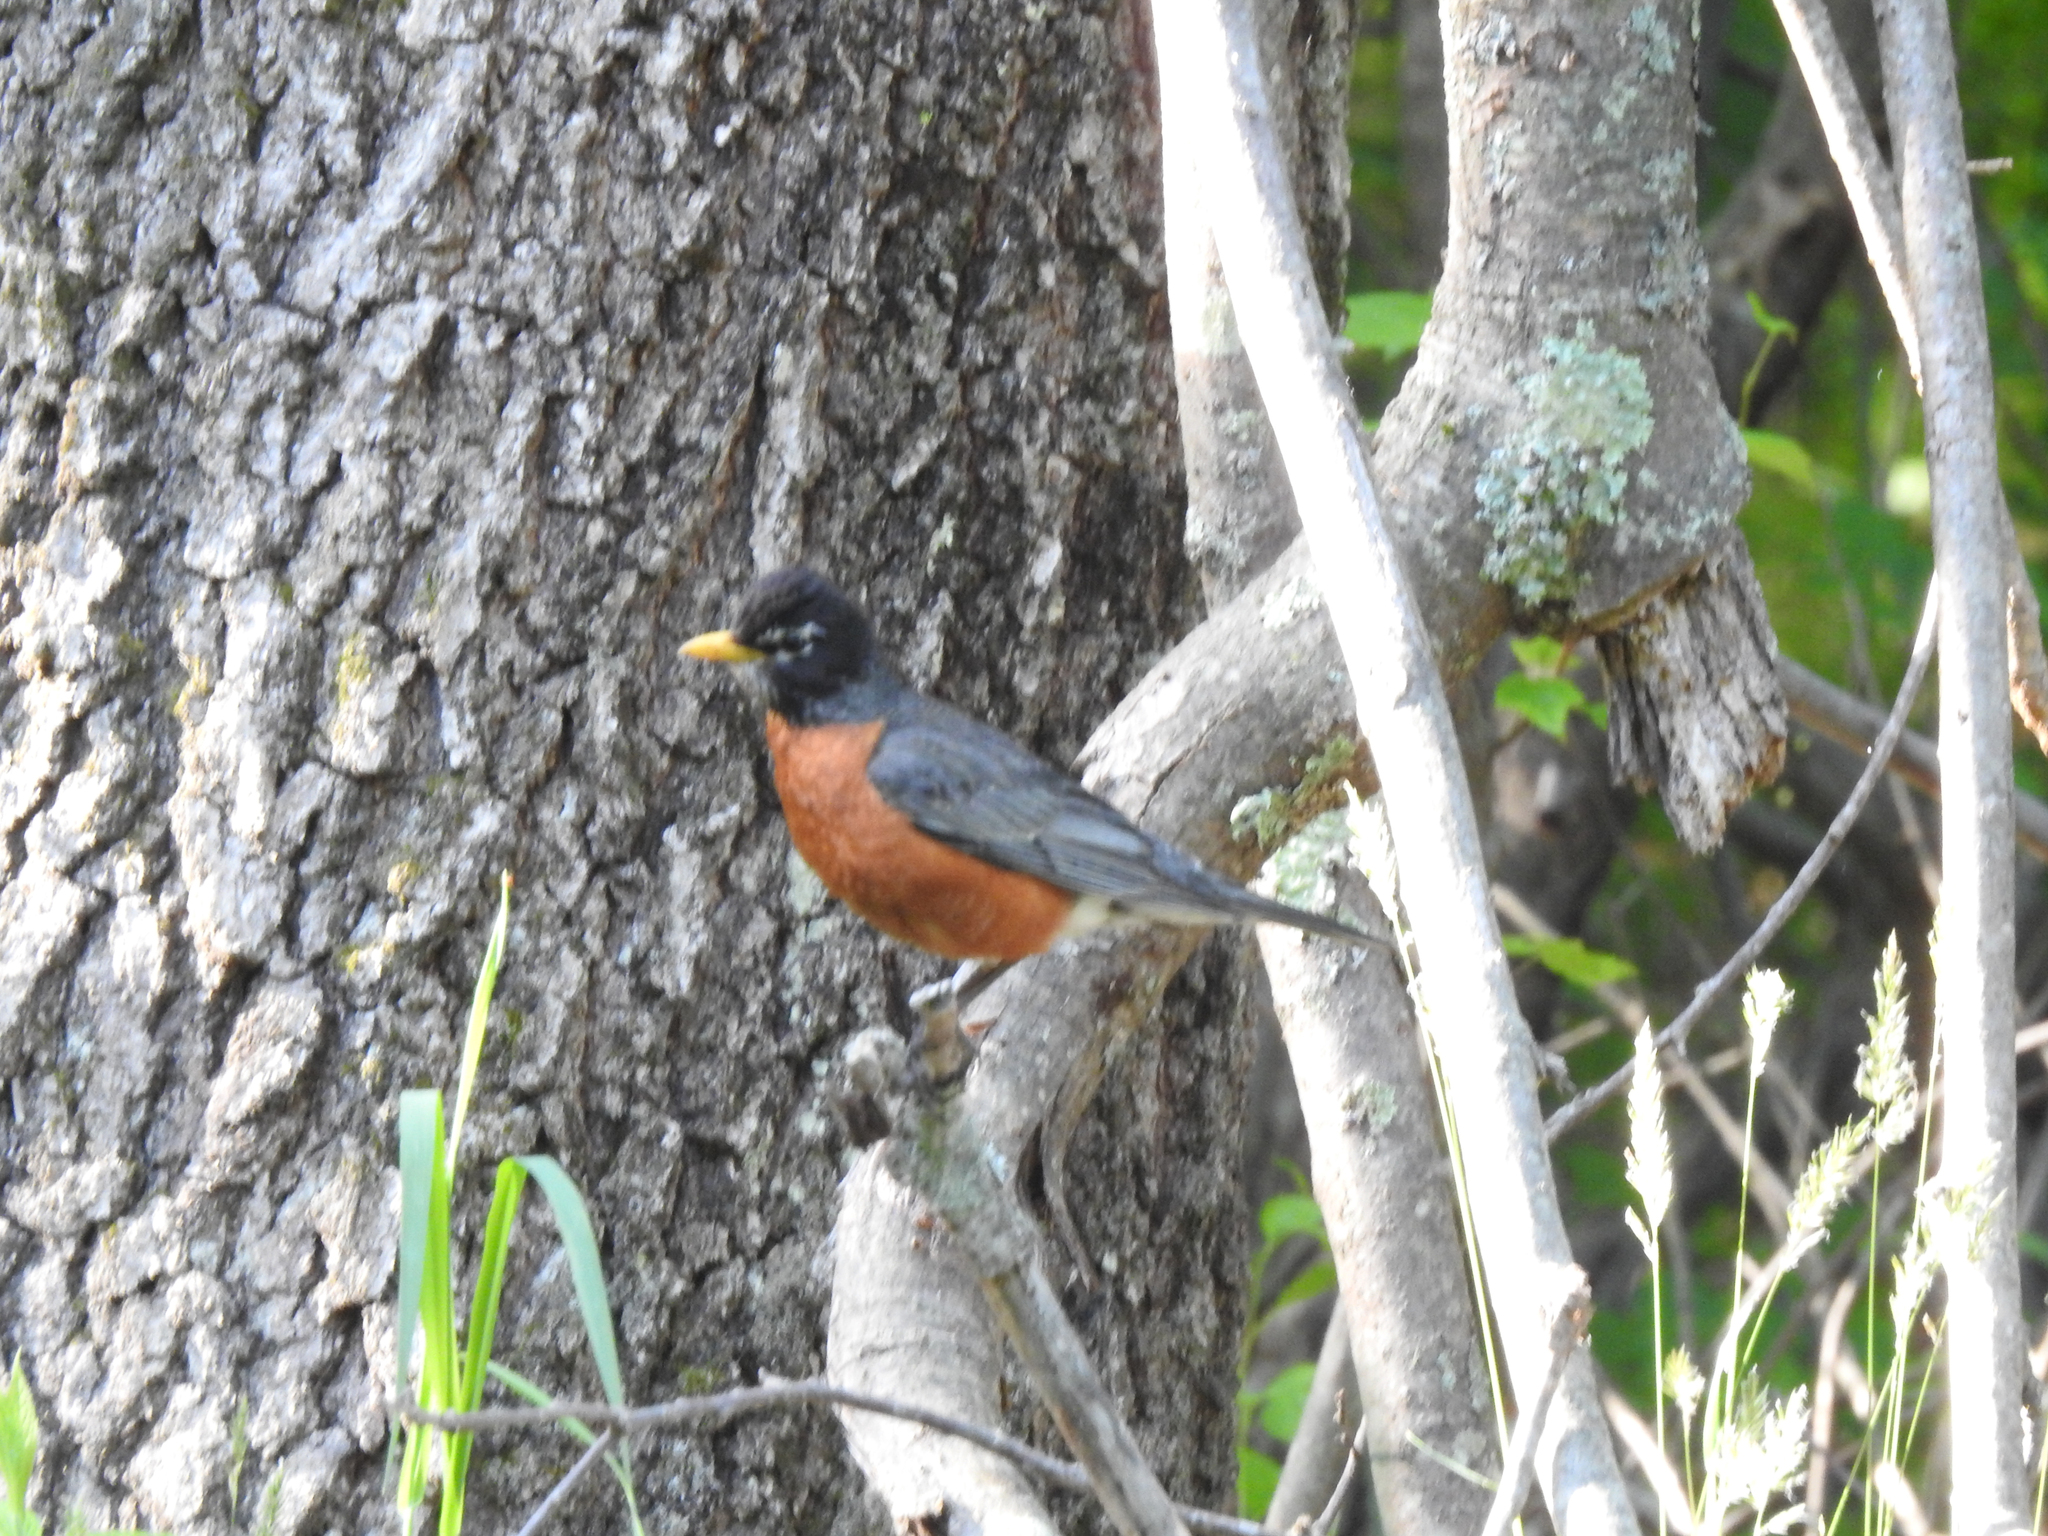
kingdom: Animalia
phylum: Chordata
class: Aves
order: Passeriformes
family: Turdidae
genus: Turdus
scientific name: Turdus migratorius
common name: American robin
